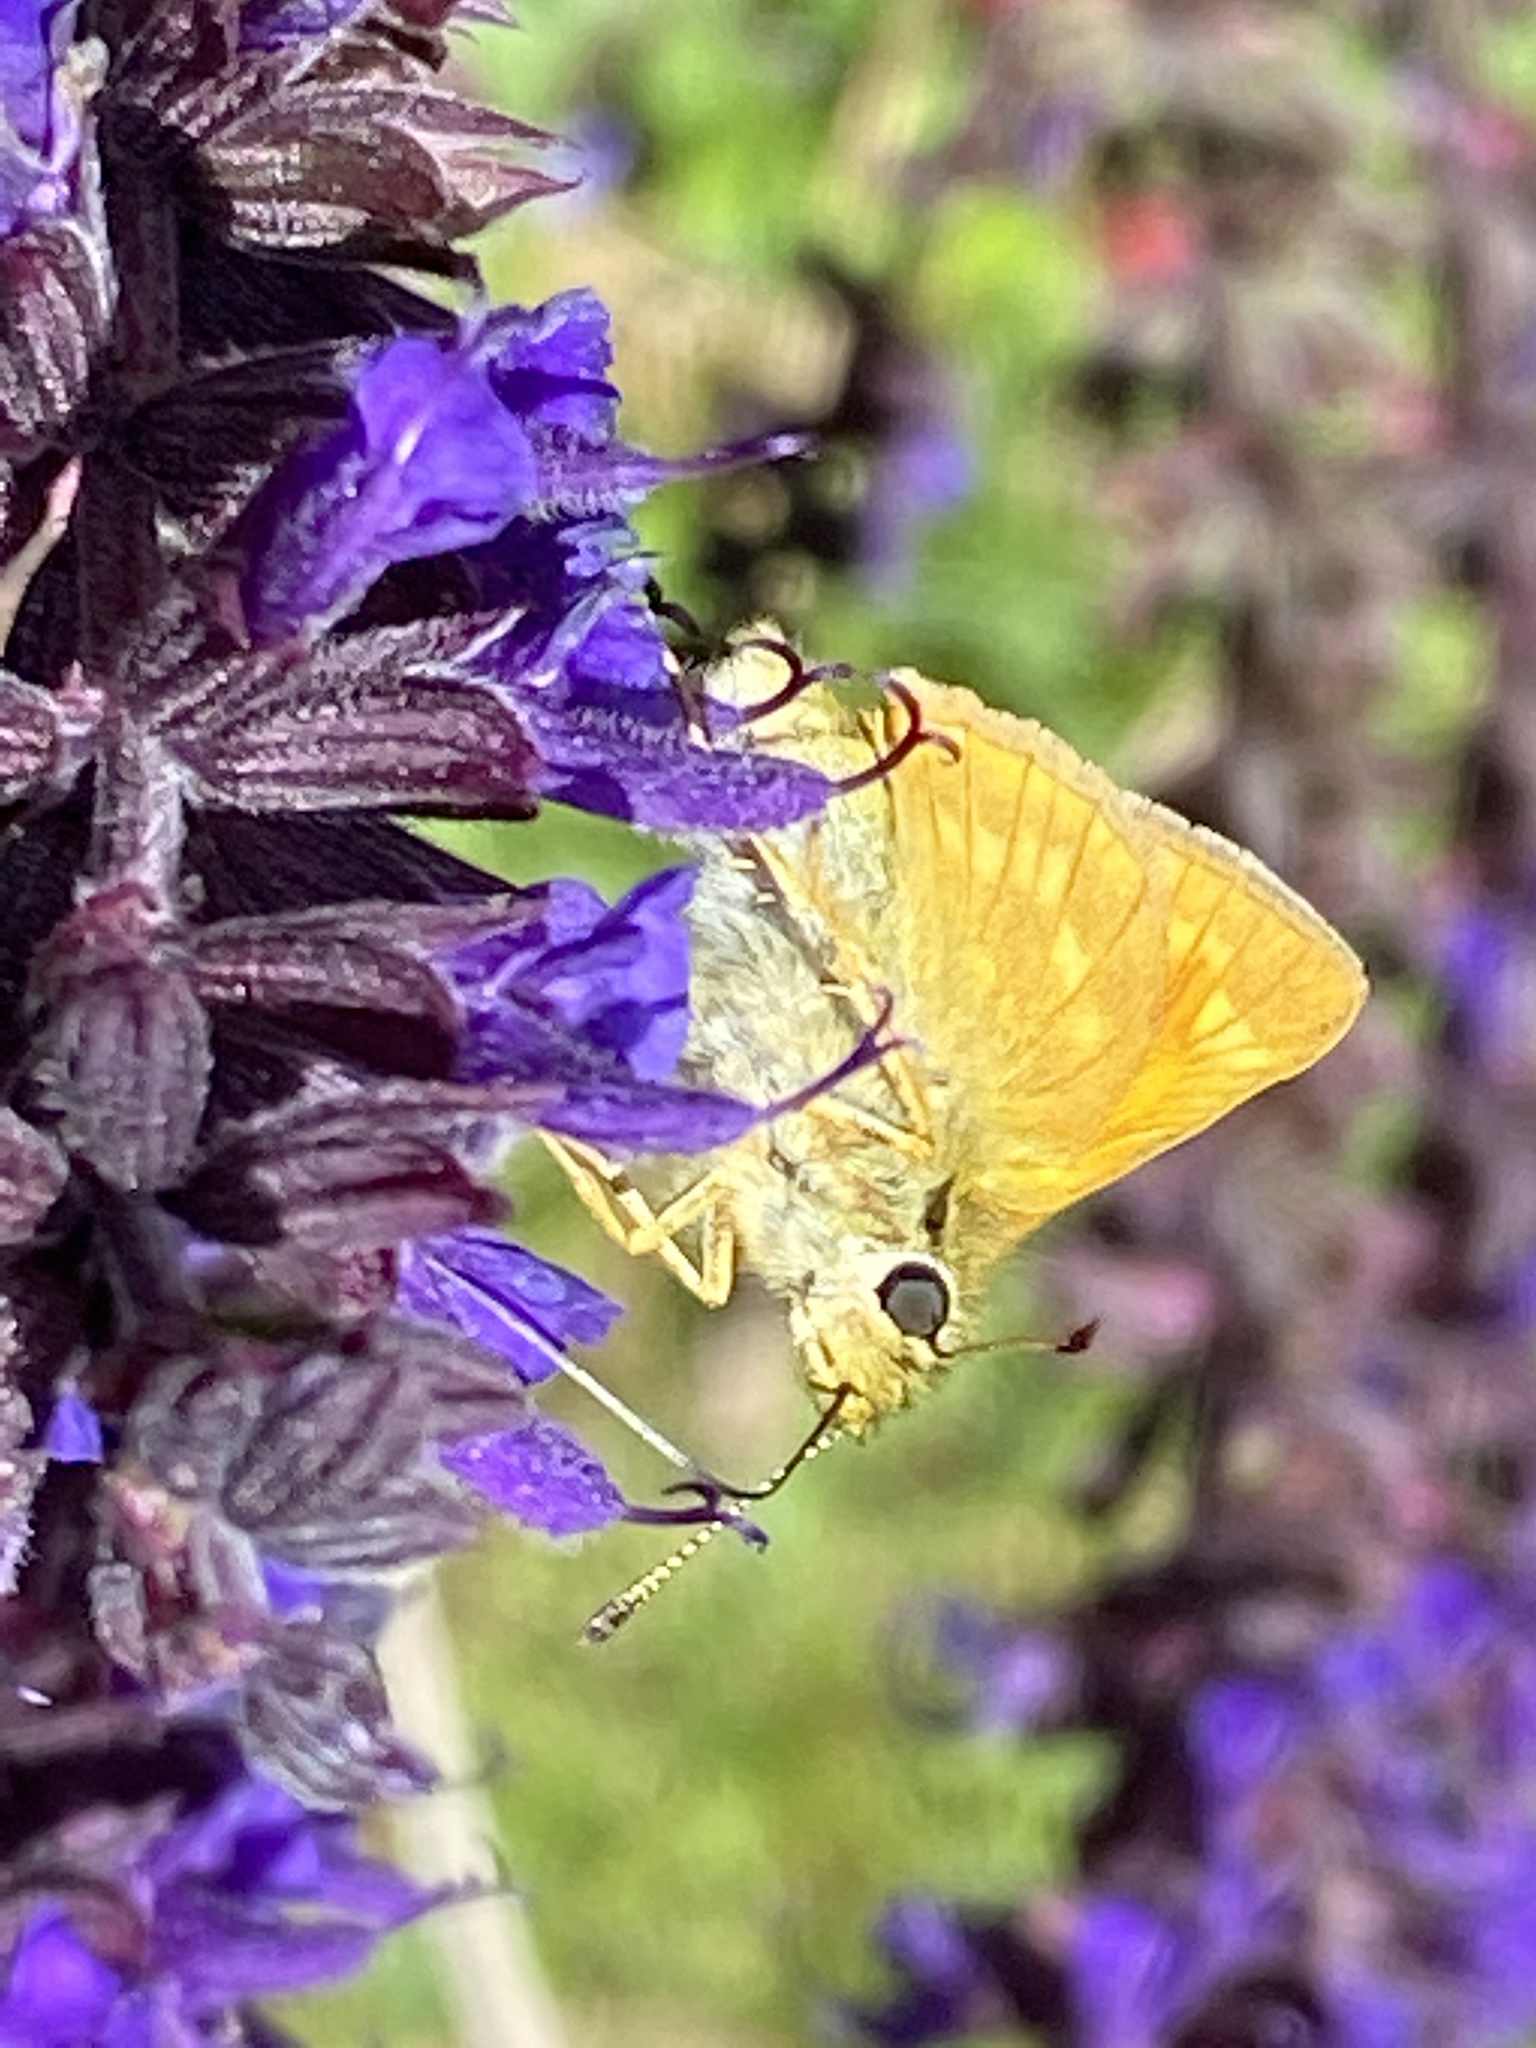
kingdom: Animalia
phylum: Arthropoda
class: Insecta
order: Lepidoptera
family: Hesperiidae
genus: Ochlodes
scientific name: Ochlodes venata
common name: Large skipper
